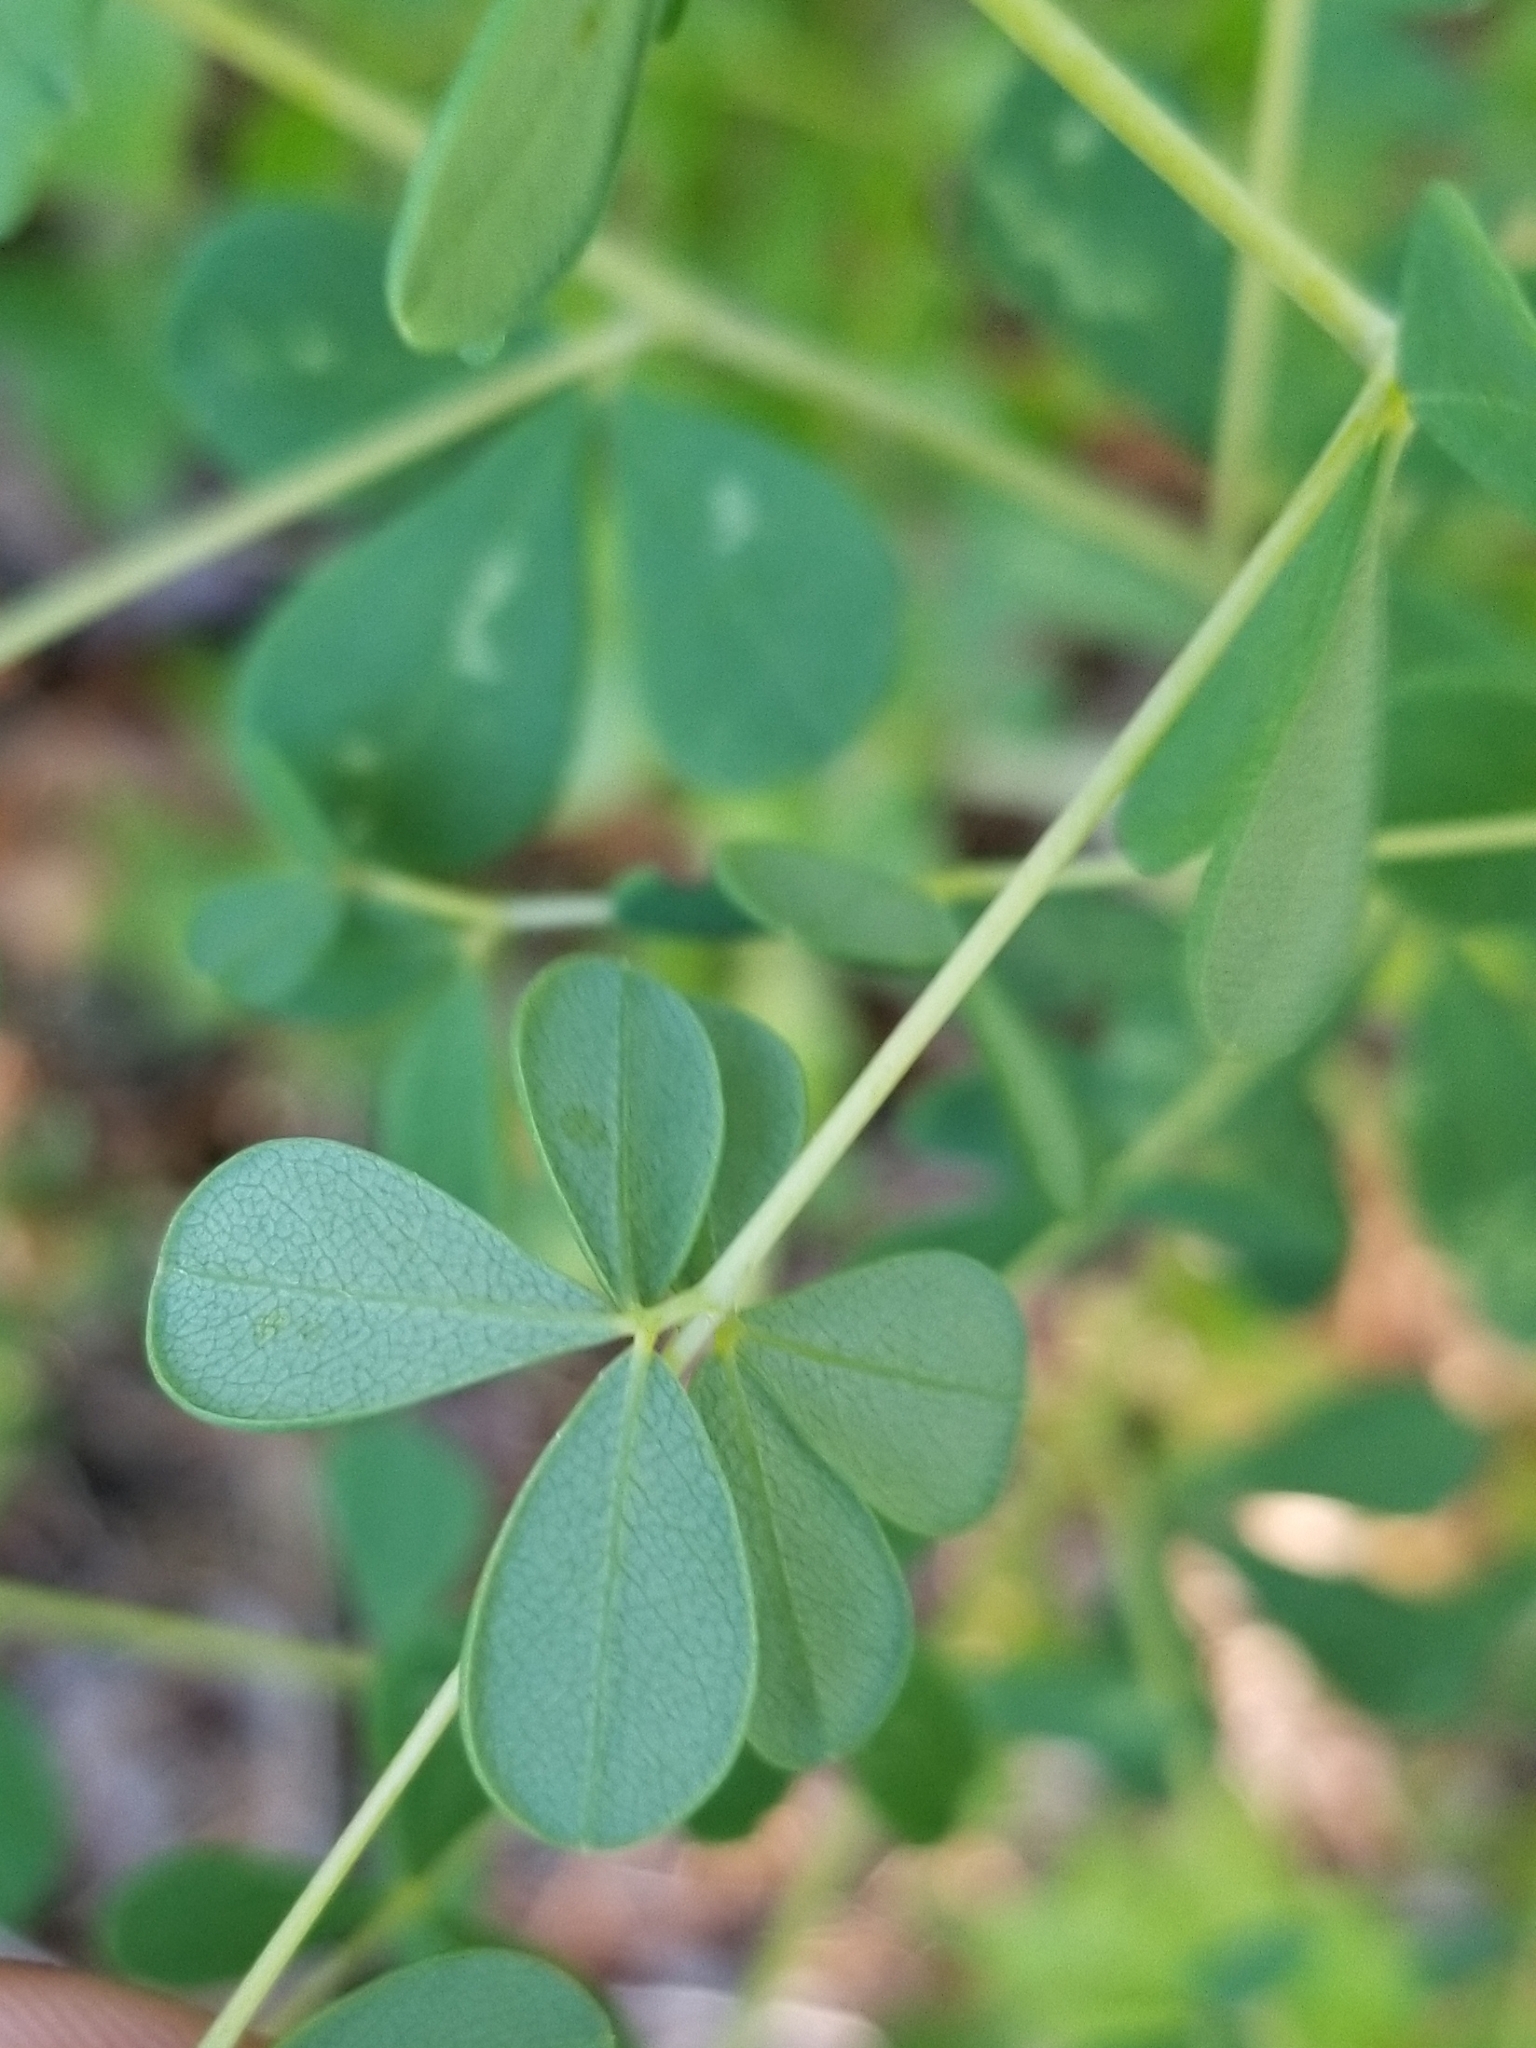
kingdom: Plantae
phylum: Tracheophyta
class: Magnoliopsida
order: Fabales
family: Fabaceae
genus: Baptisia
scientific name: Baptisia tinctoria
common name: Wild indigo
